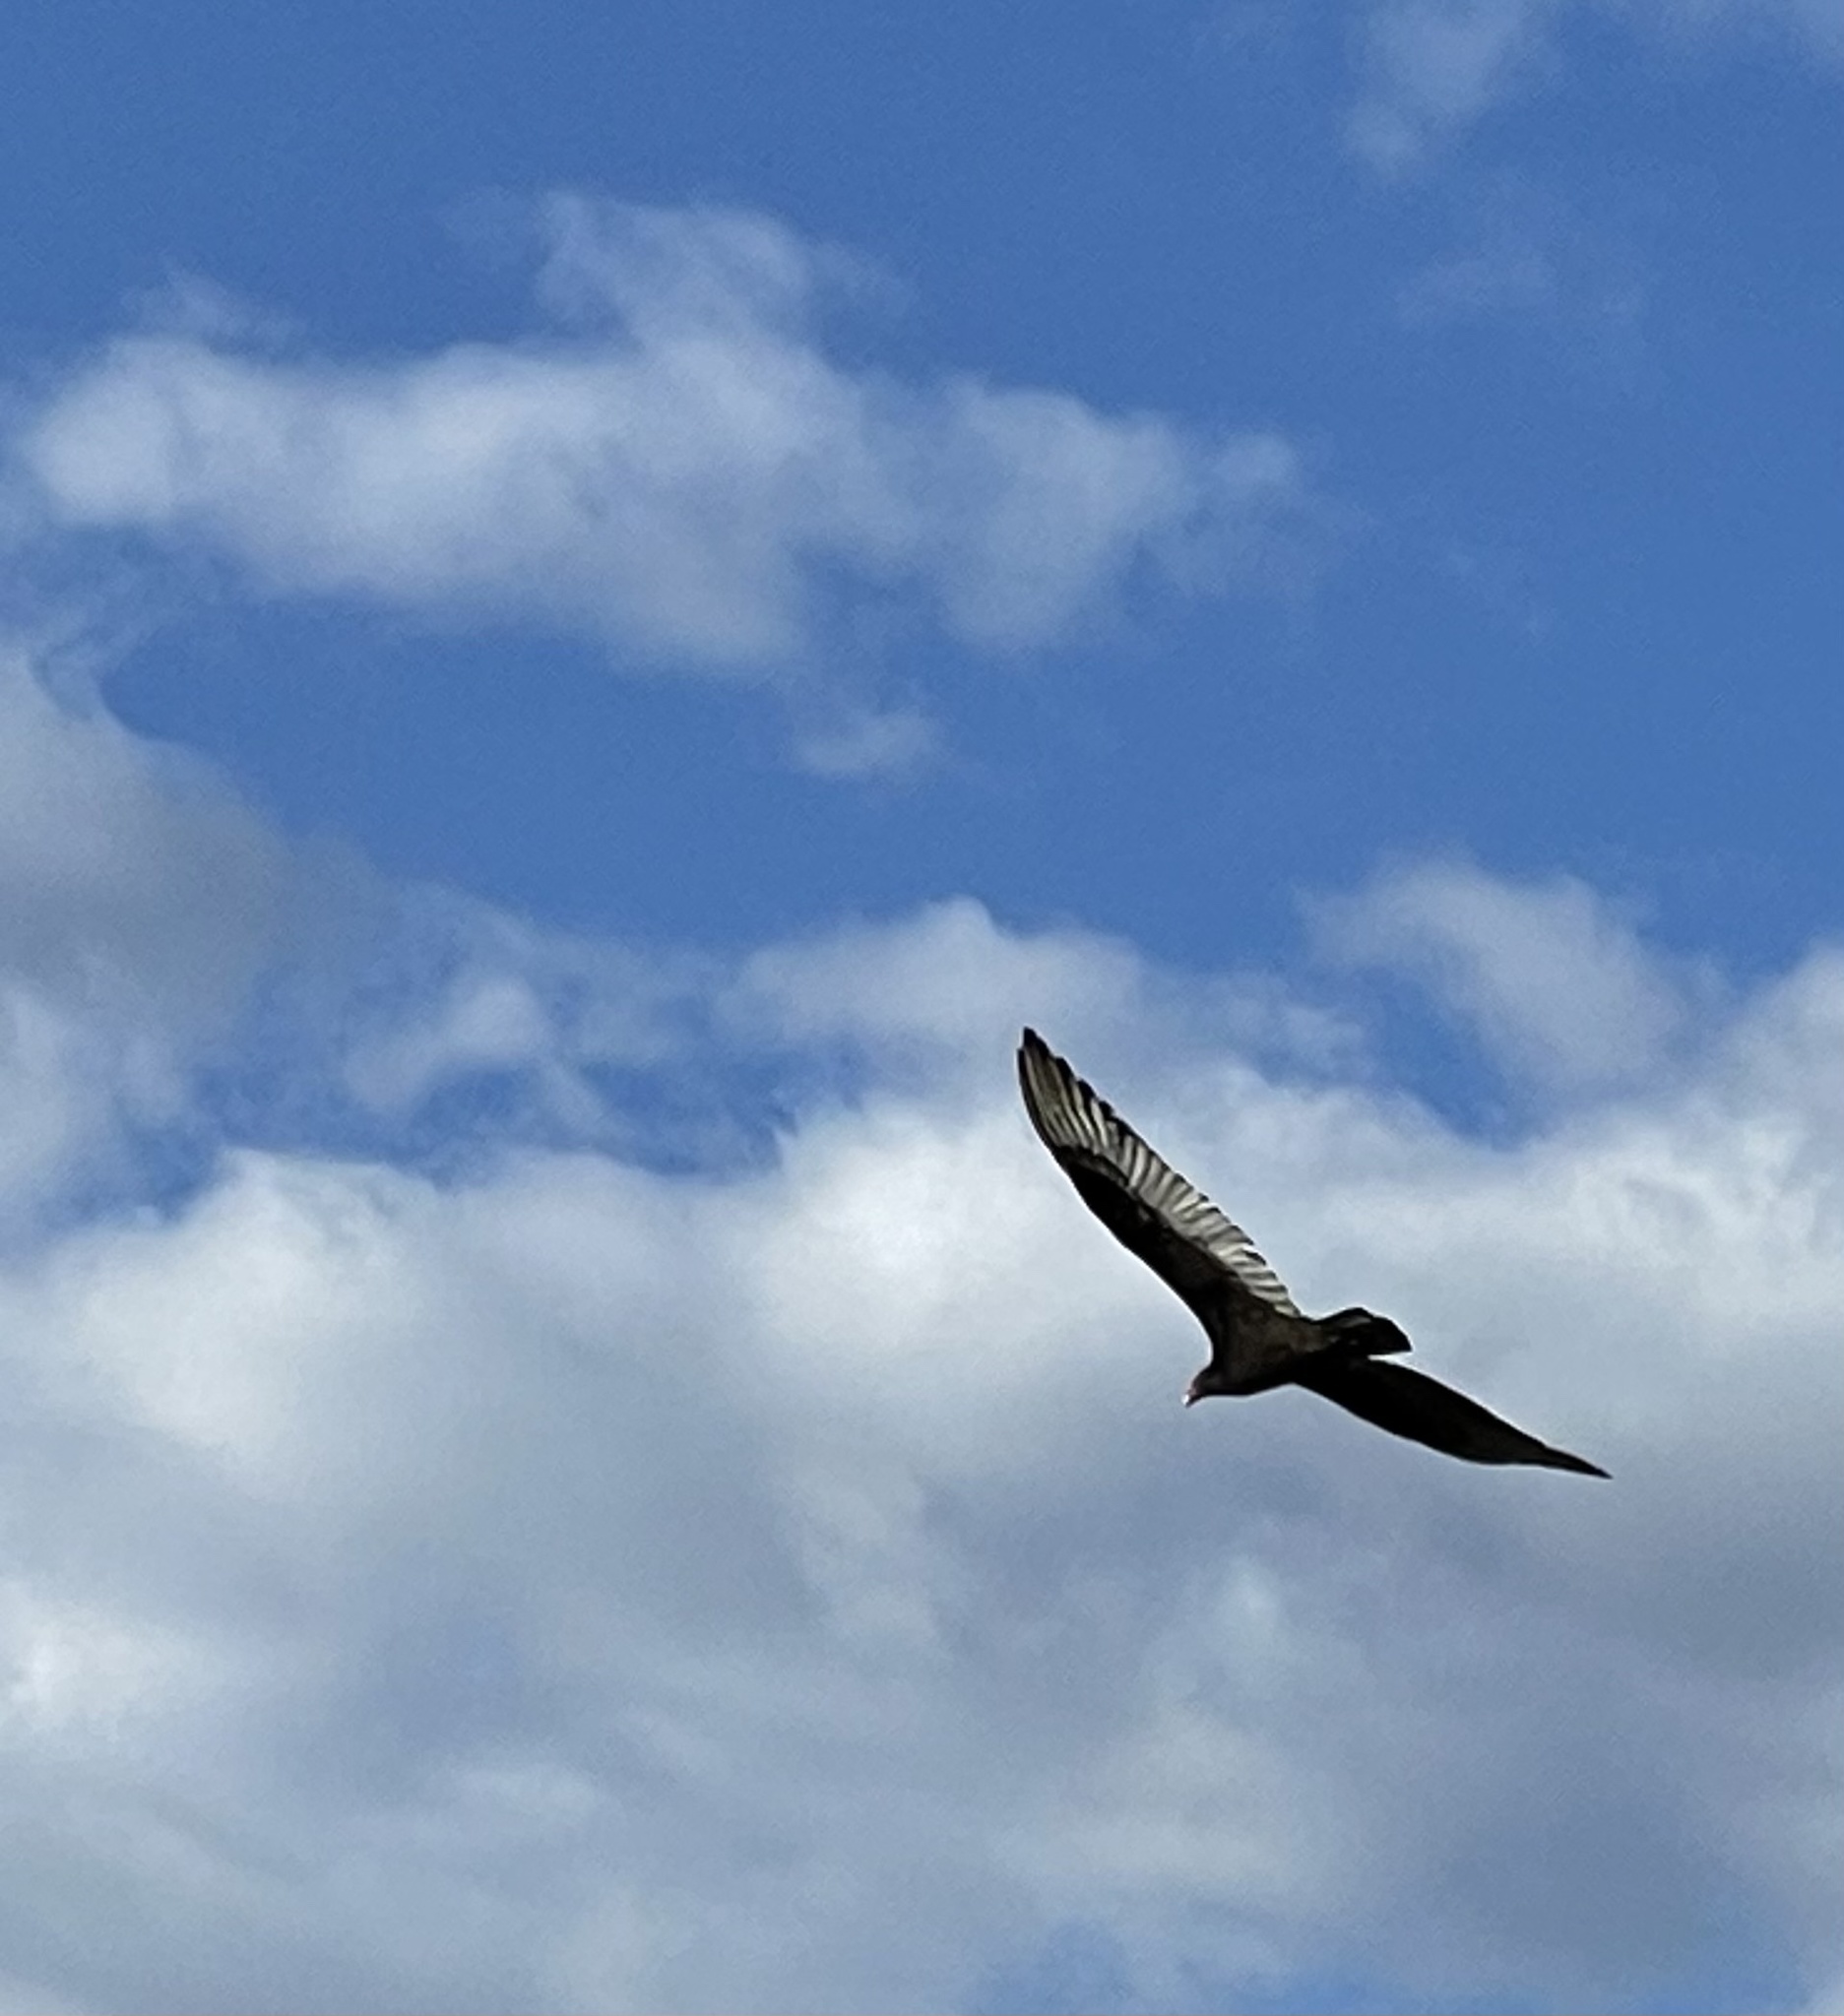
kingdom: Animalia
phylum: Chordata
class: Aves
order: Accipitriformes
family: Cathartidae
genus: Cathartes
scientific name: Cathartes aura
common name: Turkey vulture
